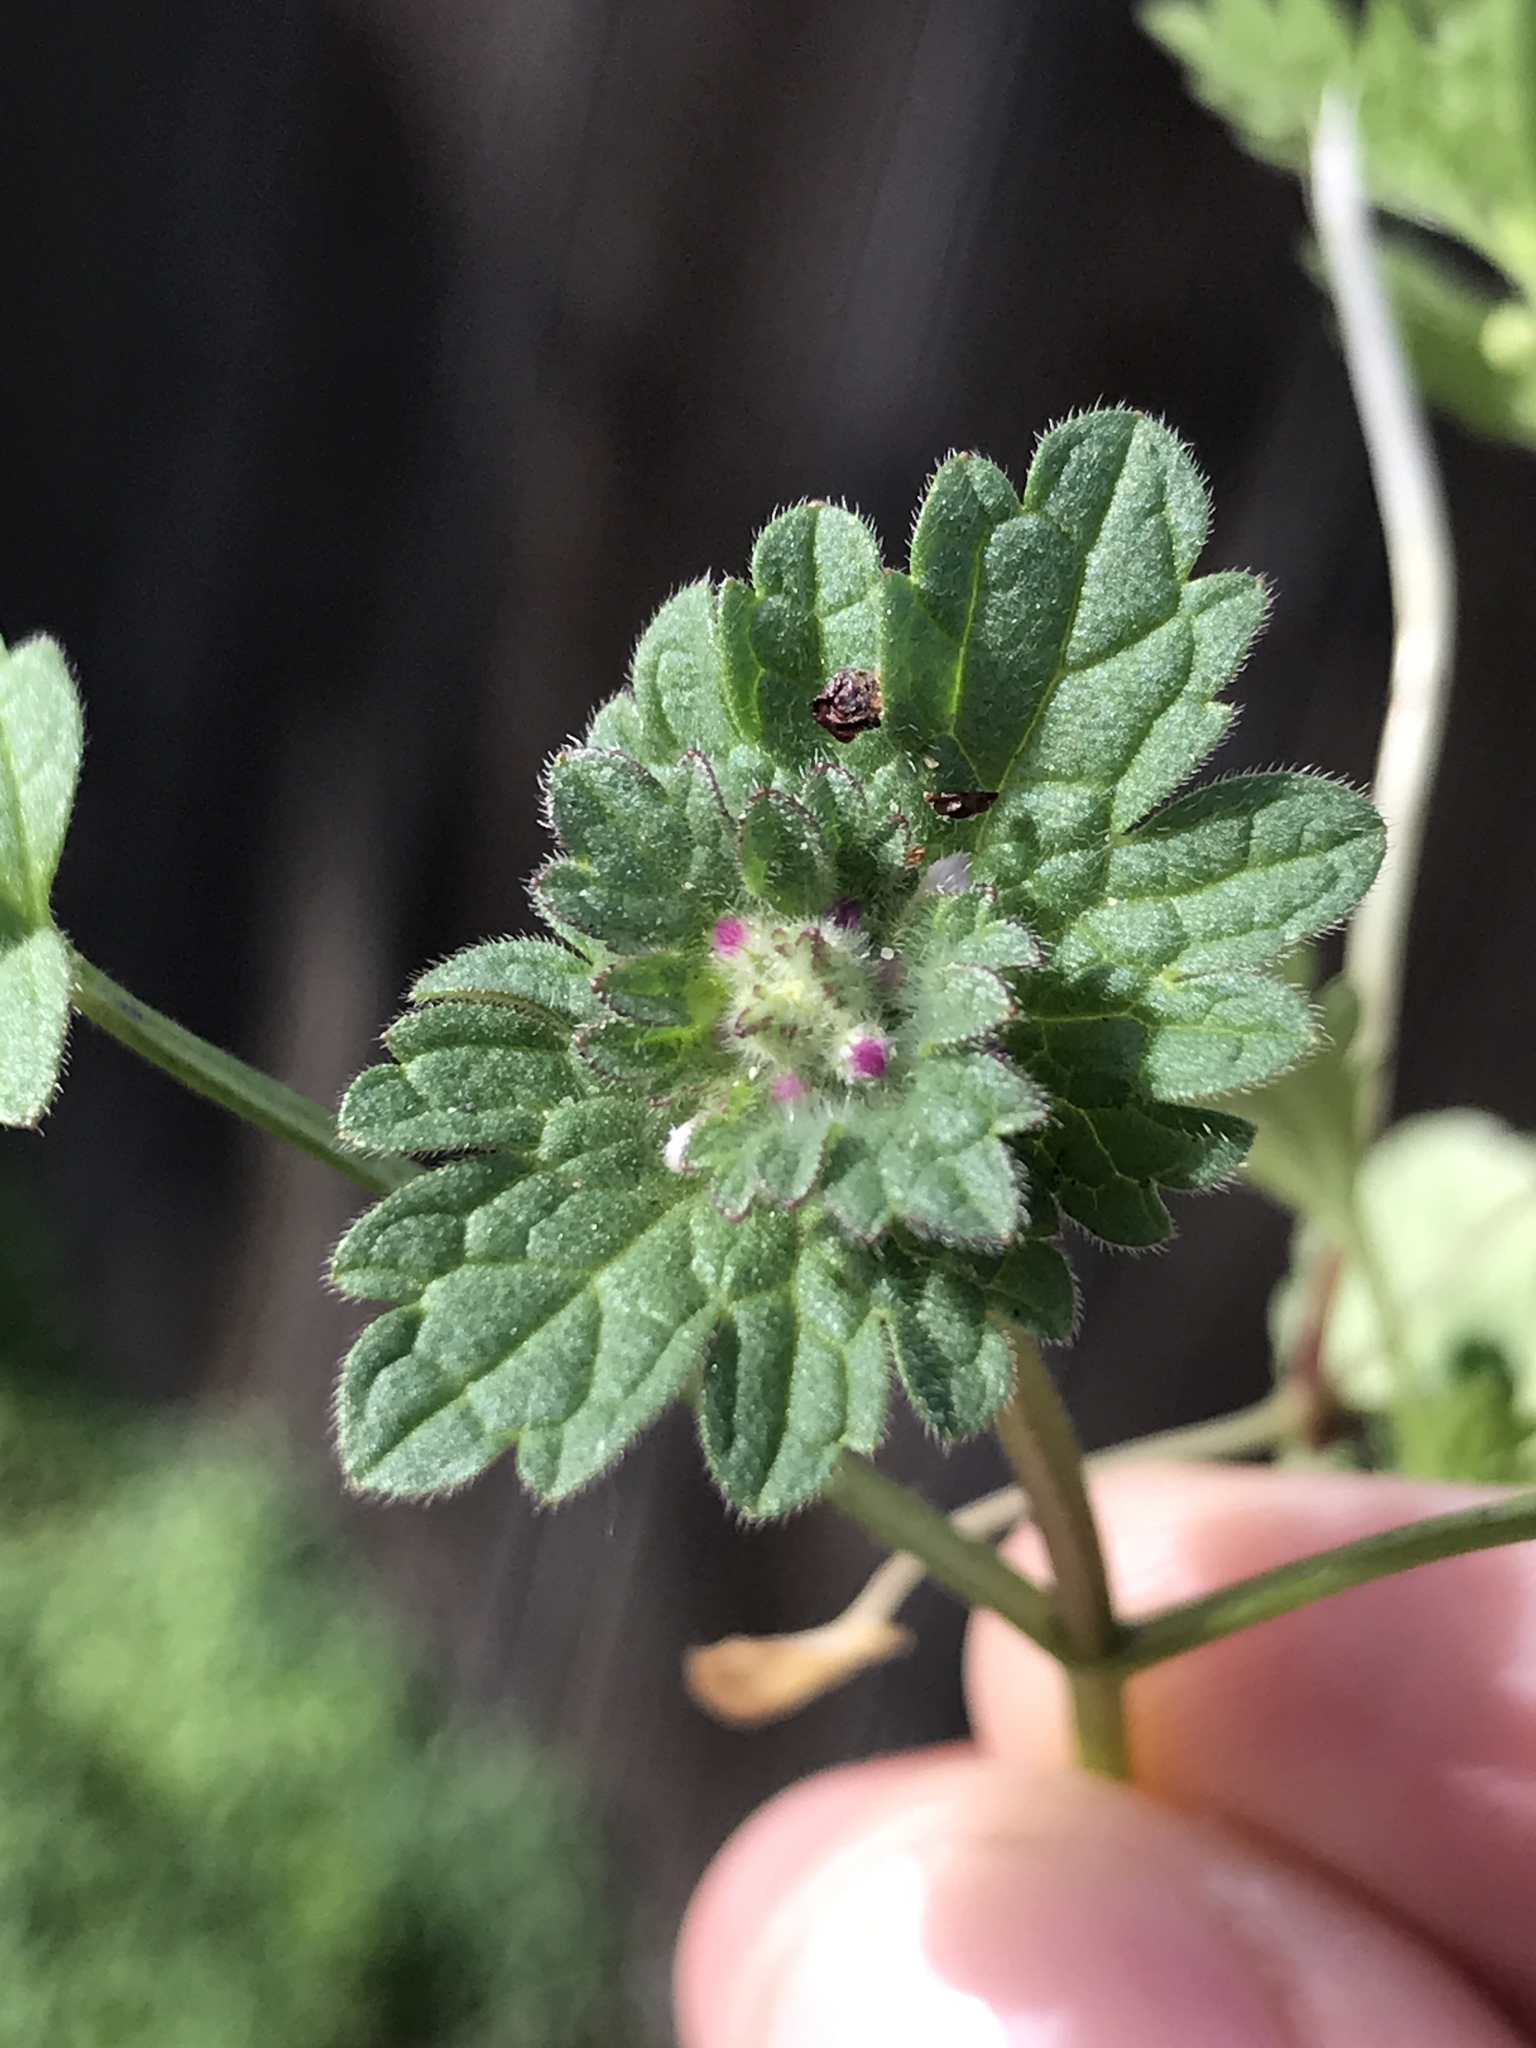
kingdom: Plantae
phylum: Tracheophyta
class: Magnoliopsida
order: Lamiales
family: Lamiaceae
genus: Lamium
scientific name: Lamium amplexicaule
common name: Henbit dead-nettle
